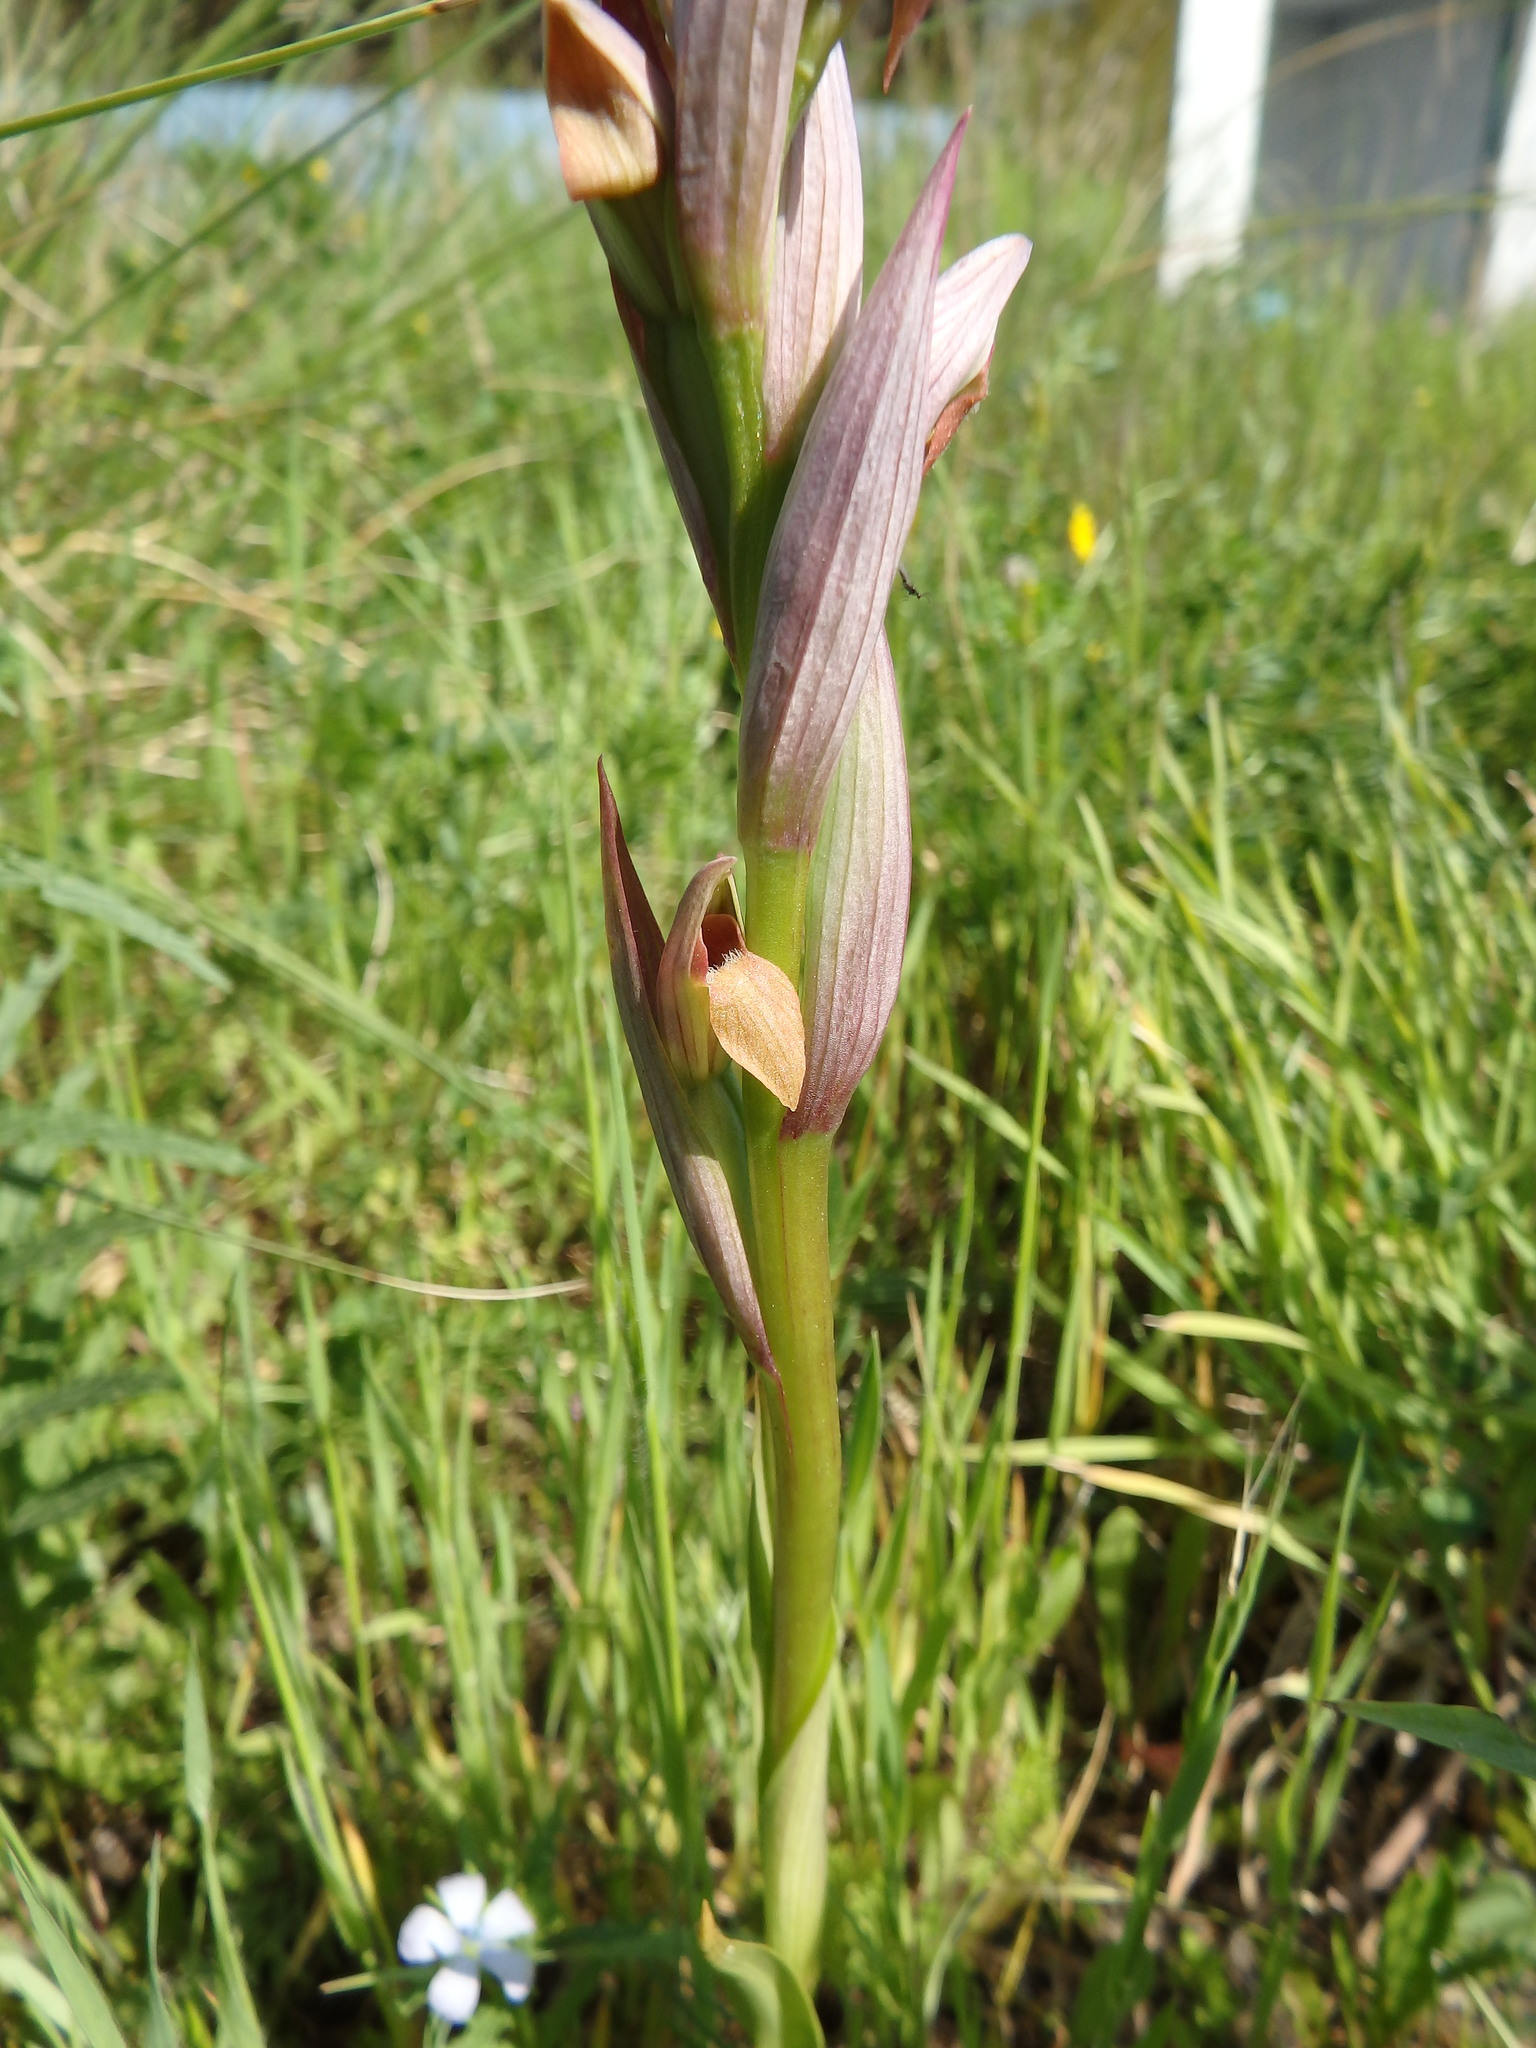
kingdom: Plantae
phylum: Tracheophyta
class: Liliopsida
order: Asparagales
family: Orchidaceae
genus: Serapias
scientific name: Serapias parviflora
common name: Small-flowered tongue-orchid
